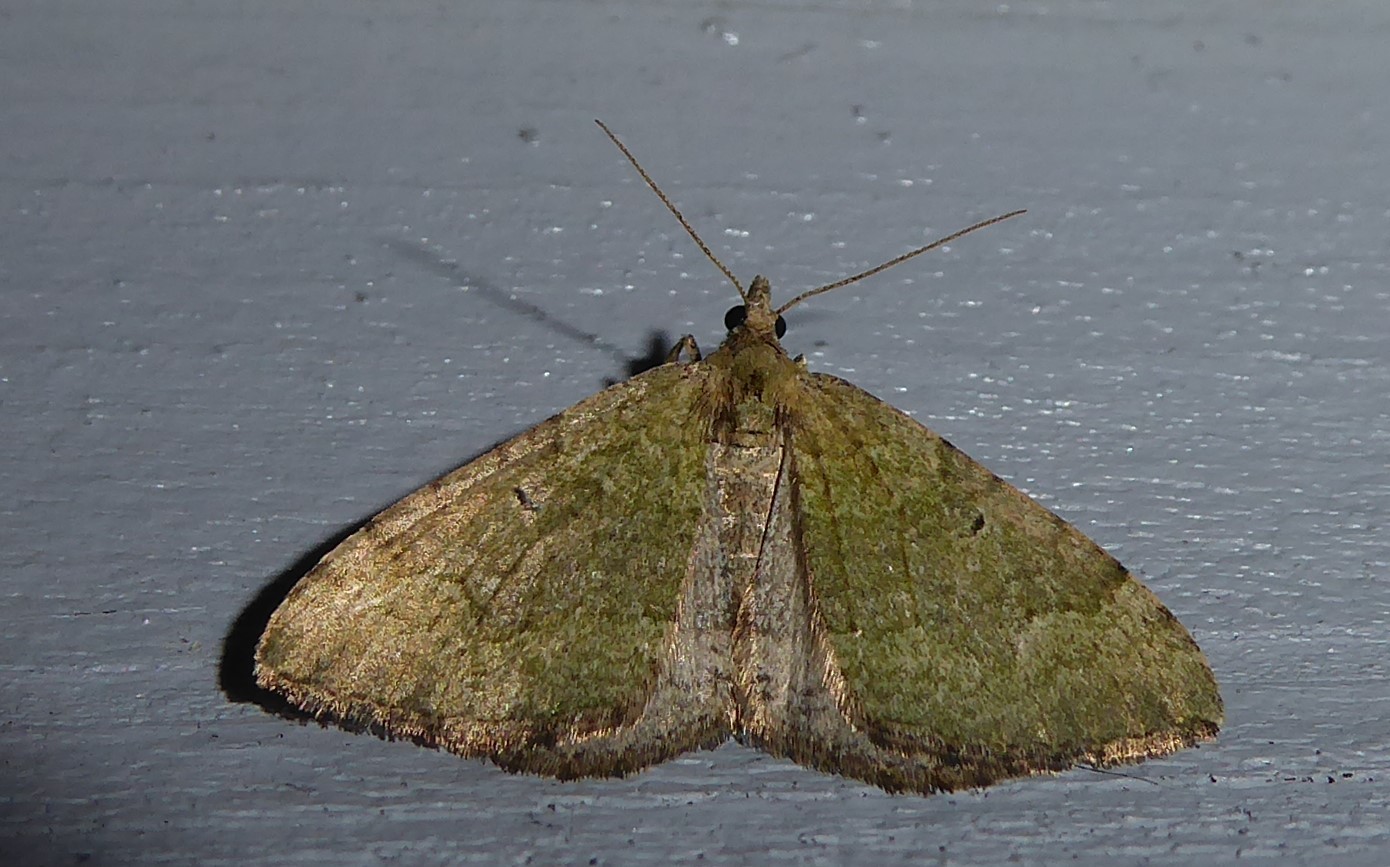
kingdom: Animalia
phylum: Arthropoda
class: Insecta
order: Lepidoptera
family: Geometridae
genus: Epyaxa
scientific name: Epyaxa rosearia
